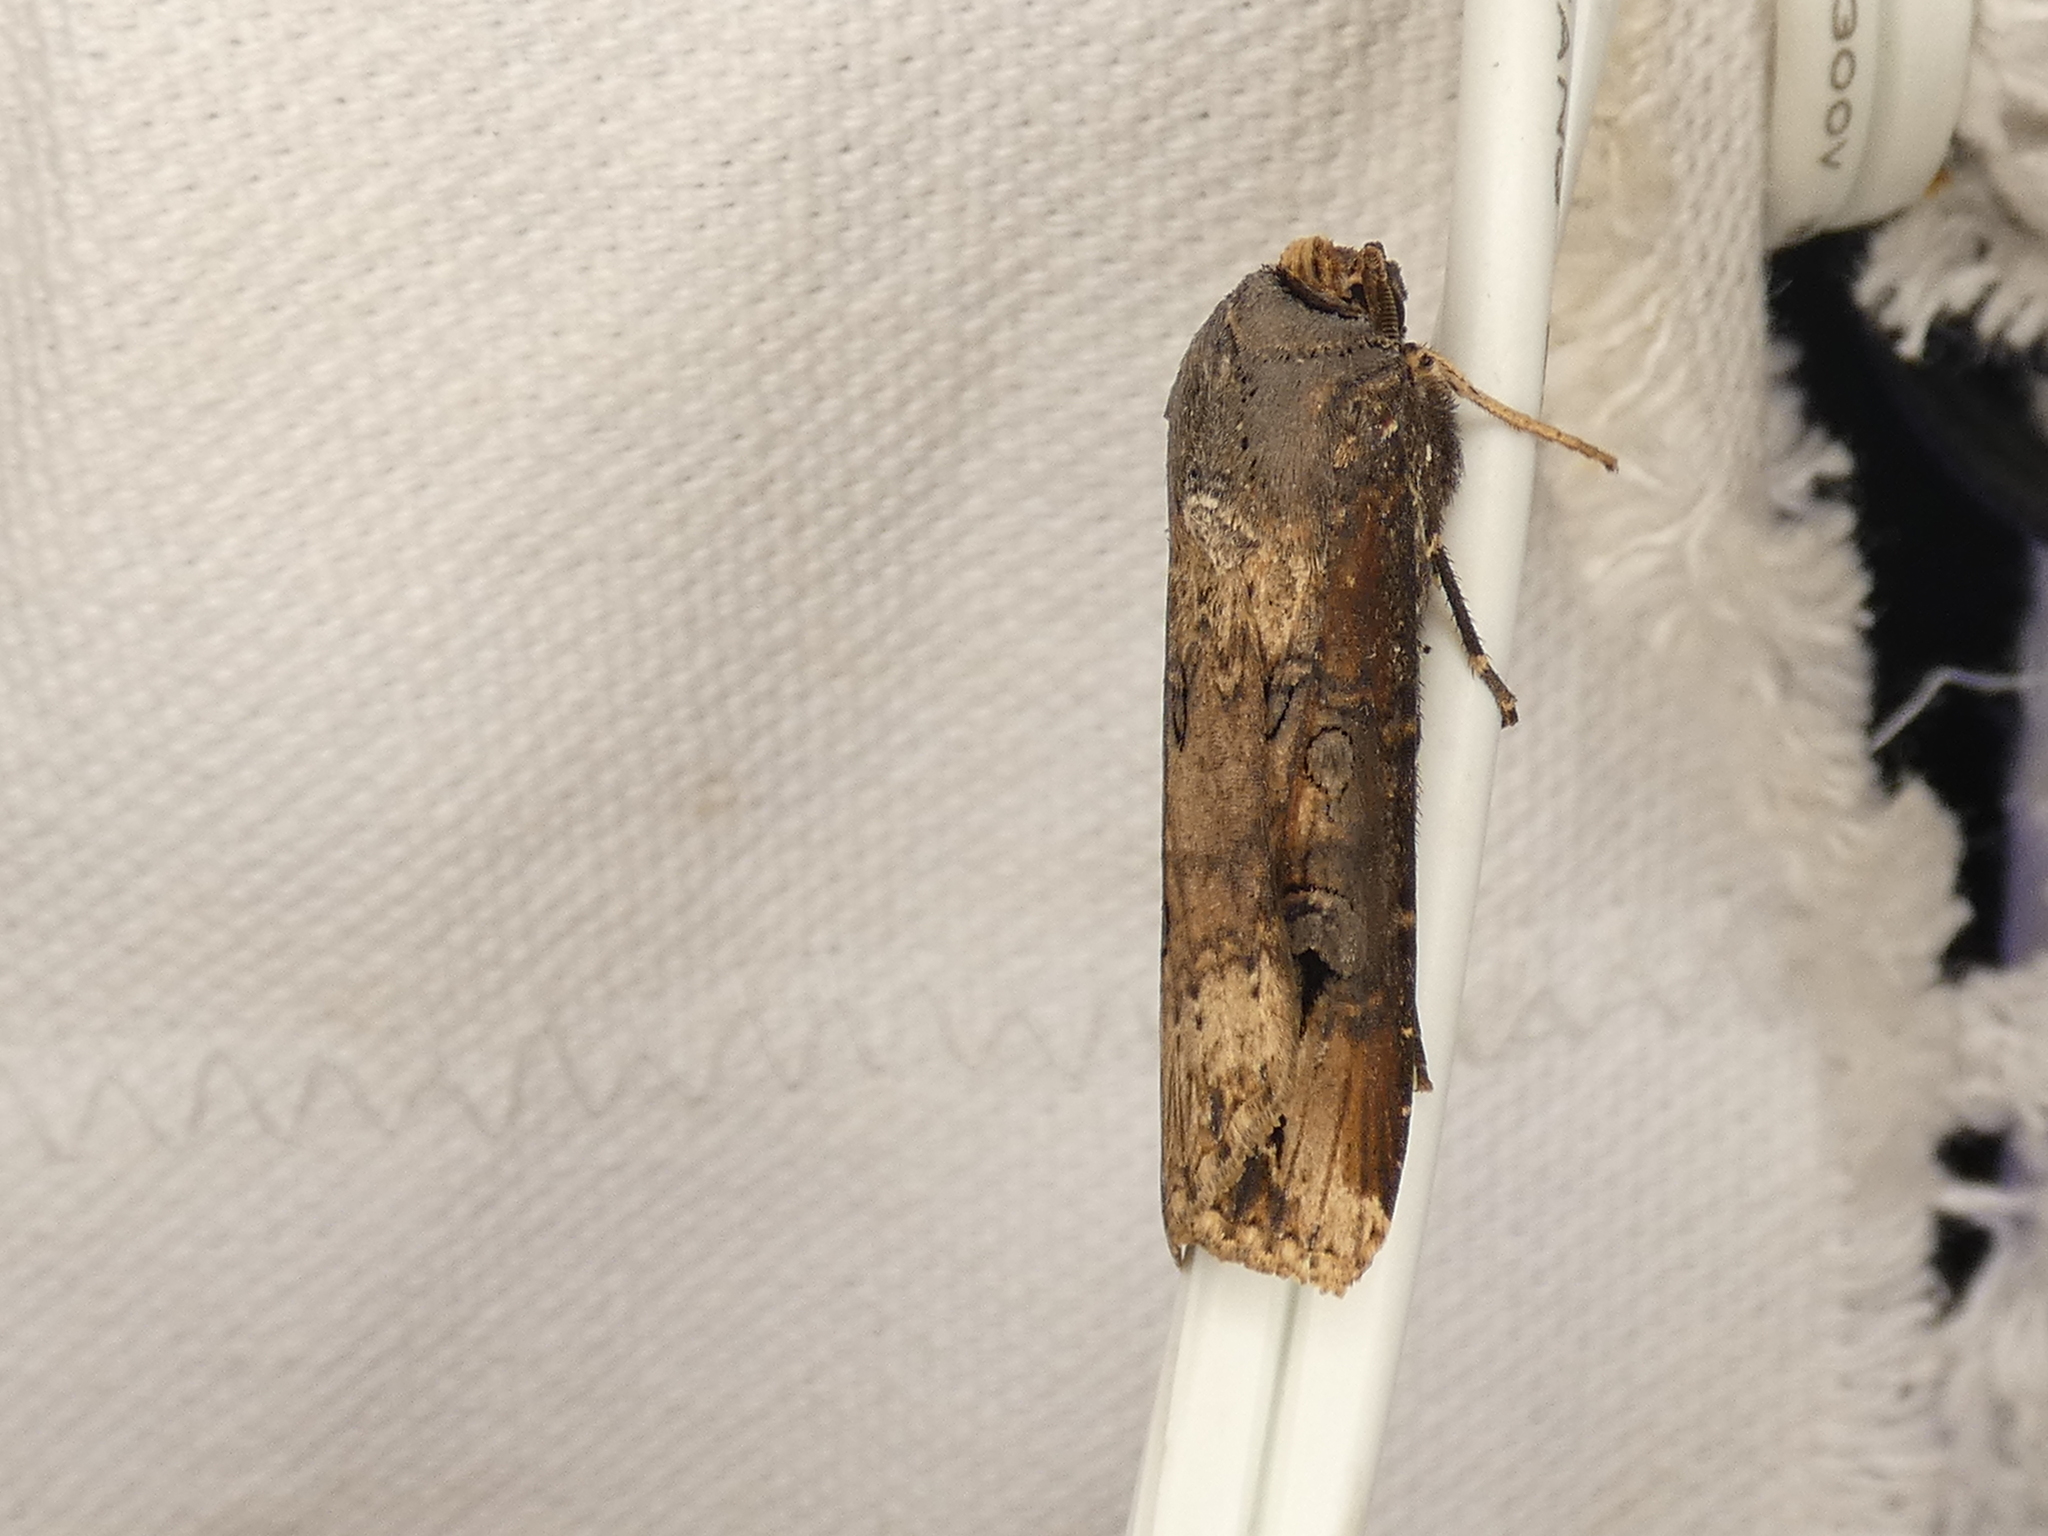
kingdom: Animalia
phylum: Arthropoda
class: Insecta
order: Lepidoptera
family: Noctuidae
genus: Agrotis
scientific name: Agrotis ipsilon
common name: Dark sword-grass
